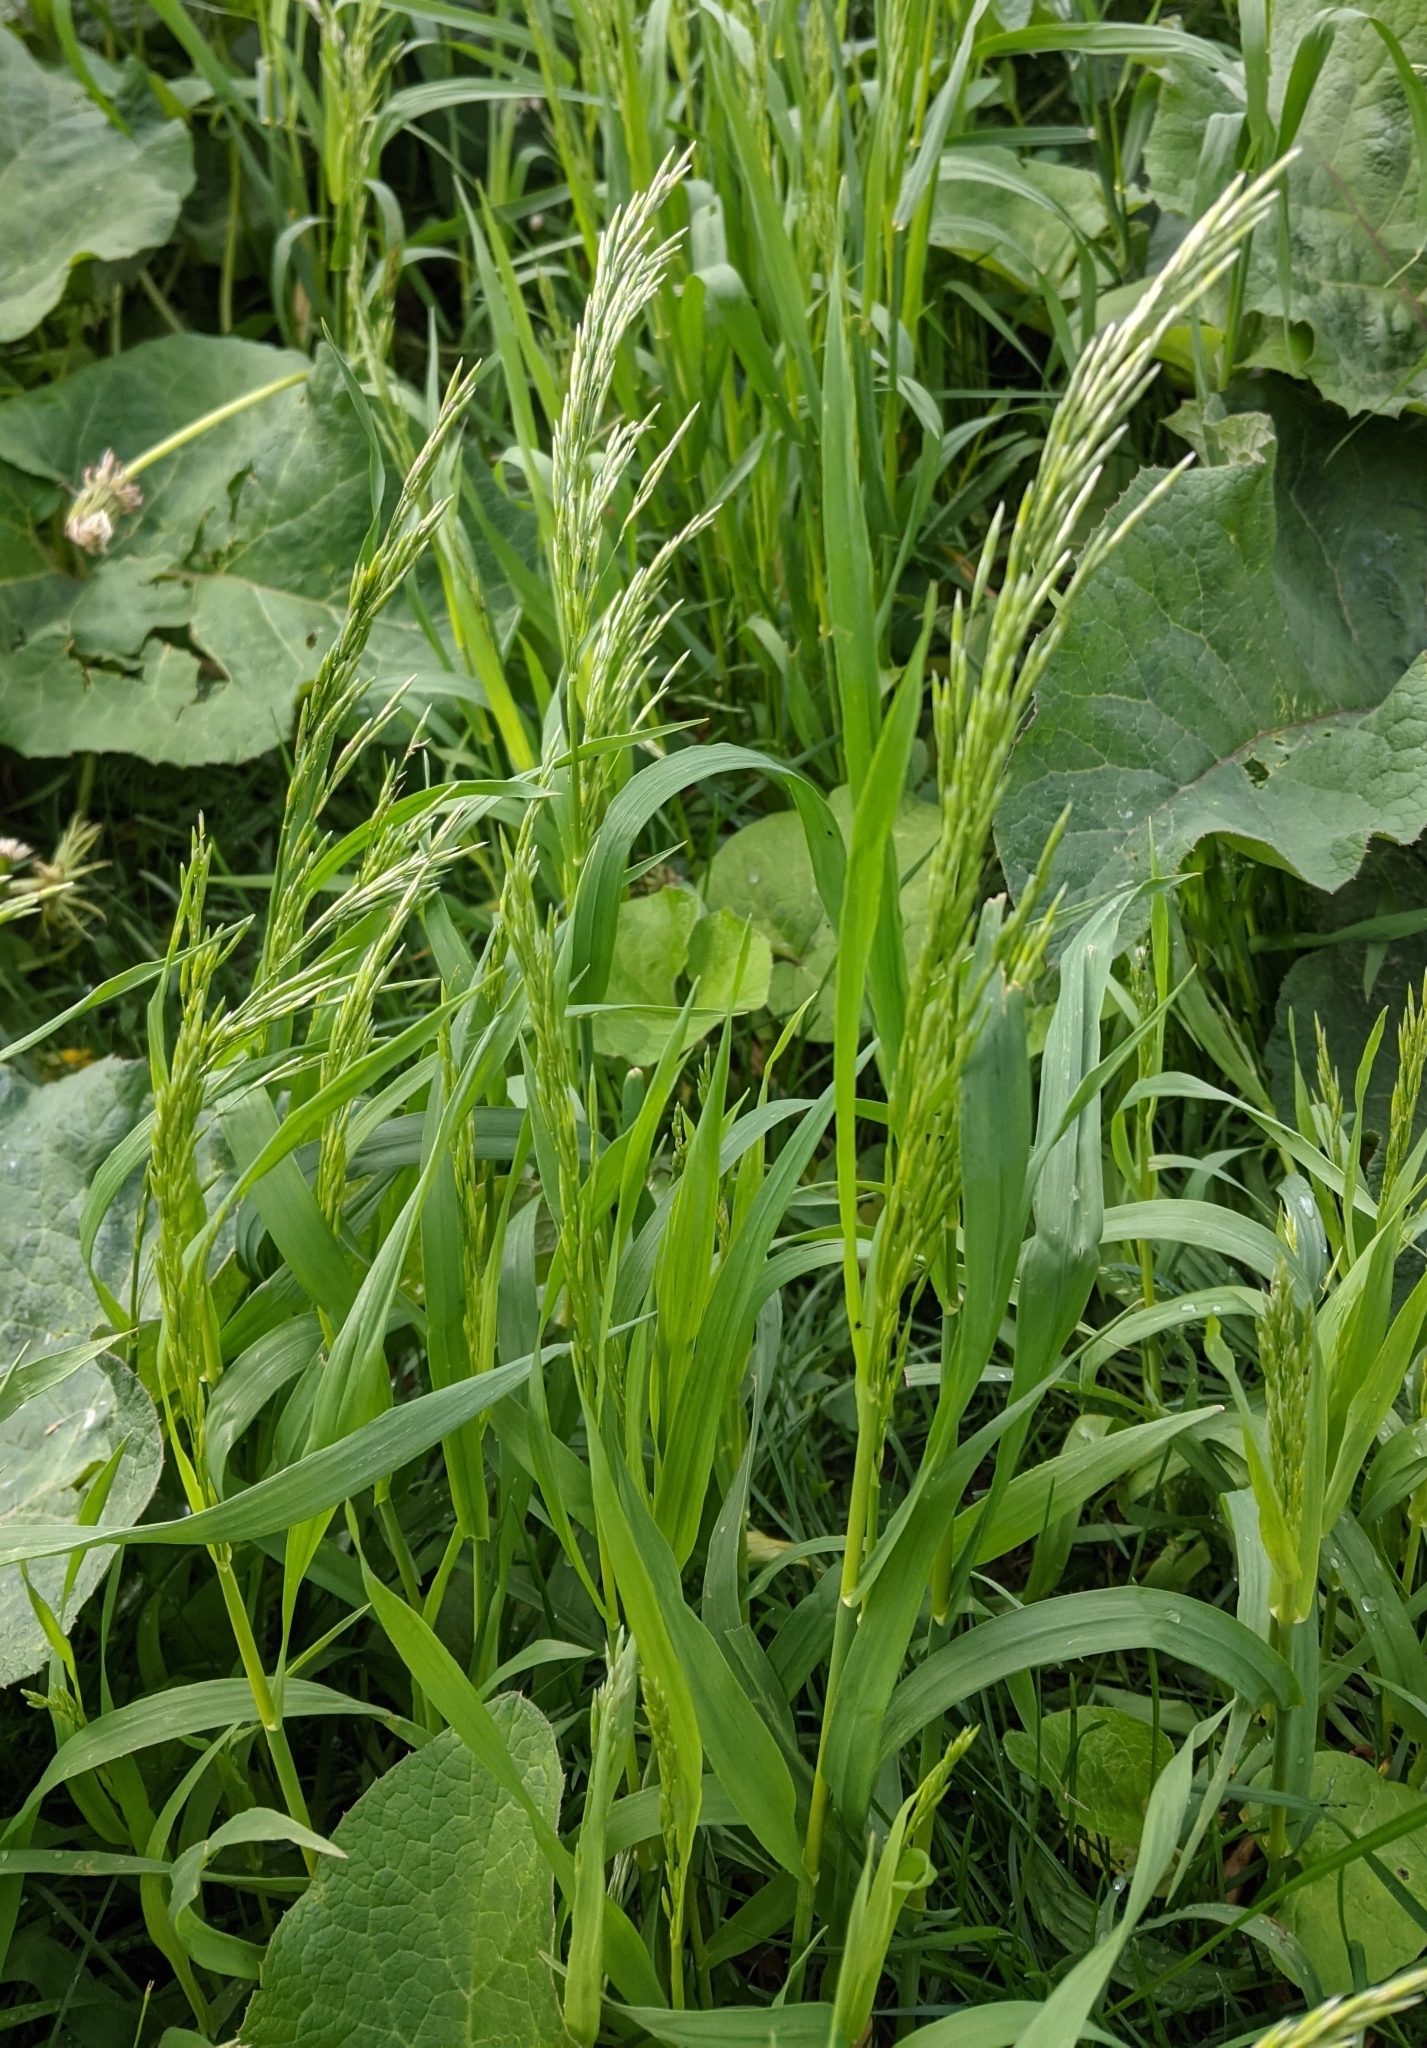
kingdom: Plantae
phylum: Tracheophyta
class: Liliopsida
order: Poales
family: Poaceae
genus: Bromus
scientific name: Bromus inermis
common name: Smooth brome
